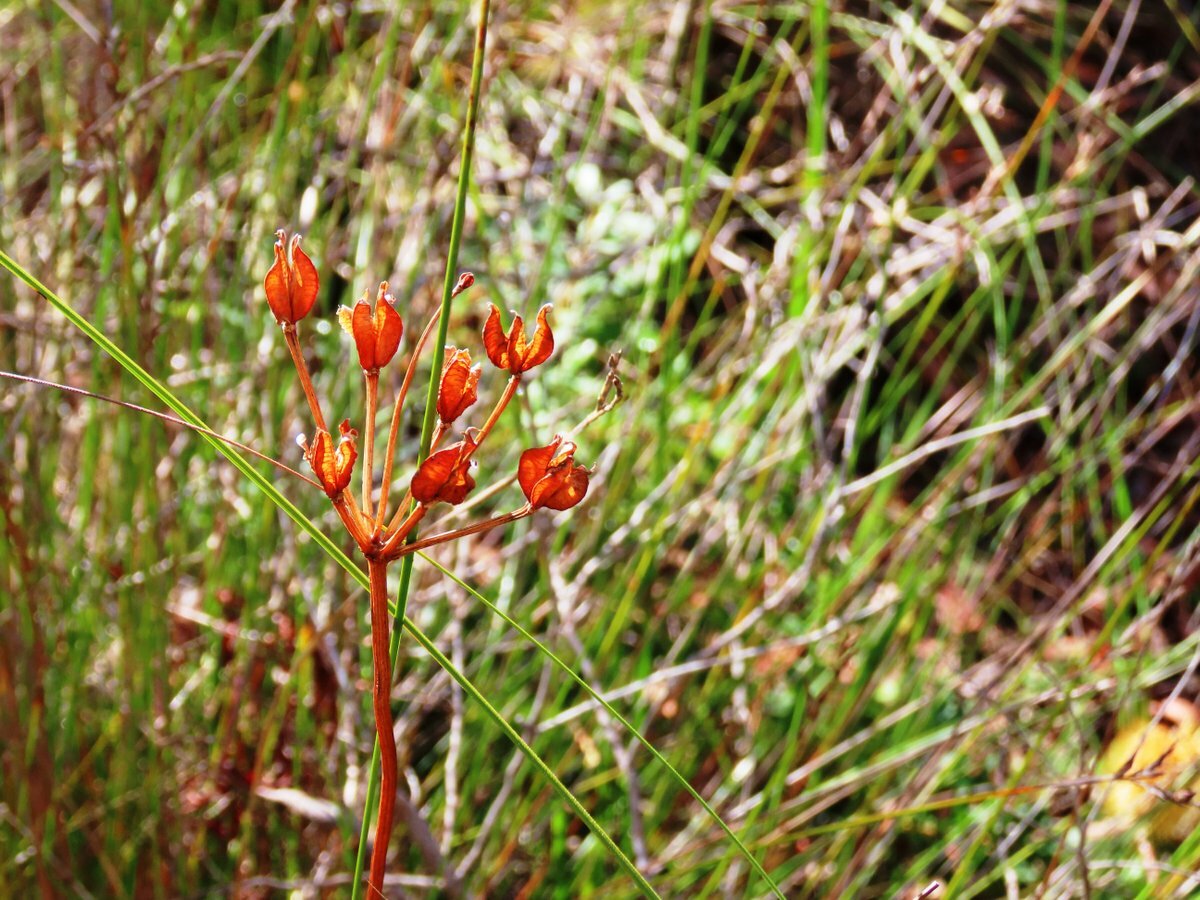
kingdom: Plantae
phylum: Tracheophyta
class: Liliopsida
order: Liliales
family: Colchicaceae
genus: Burchardia
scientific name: Burchardia umbellata
